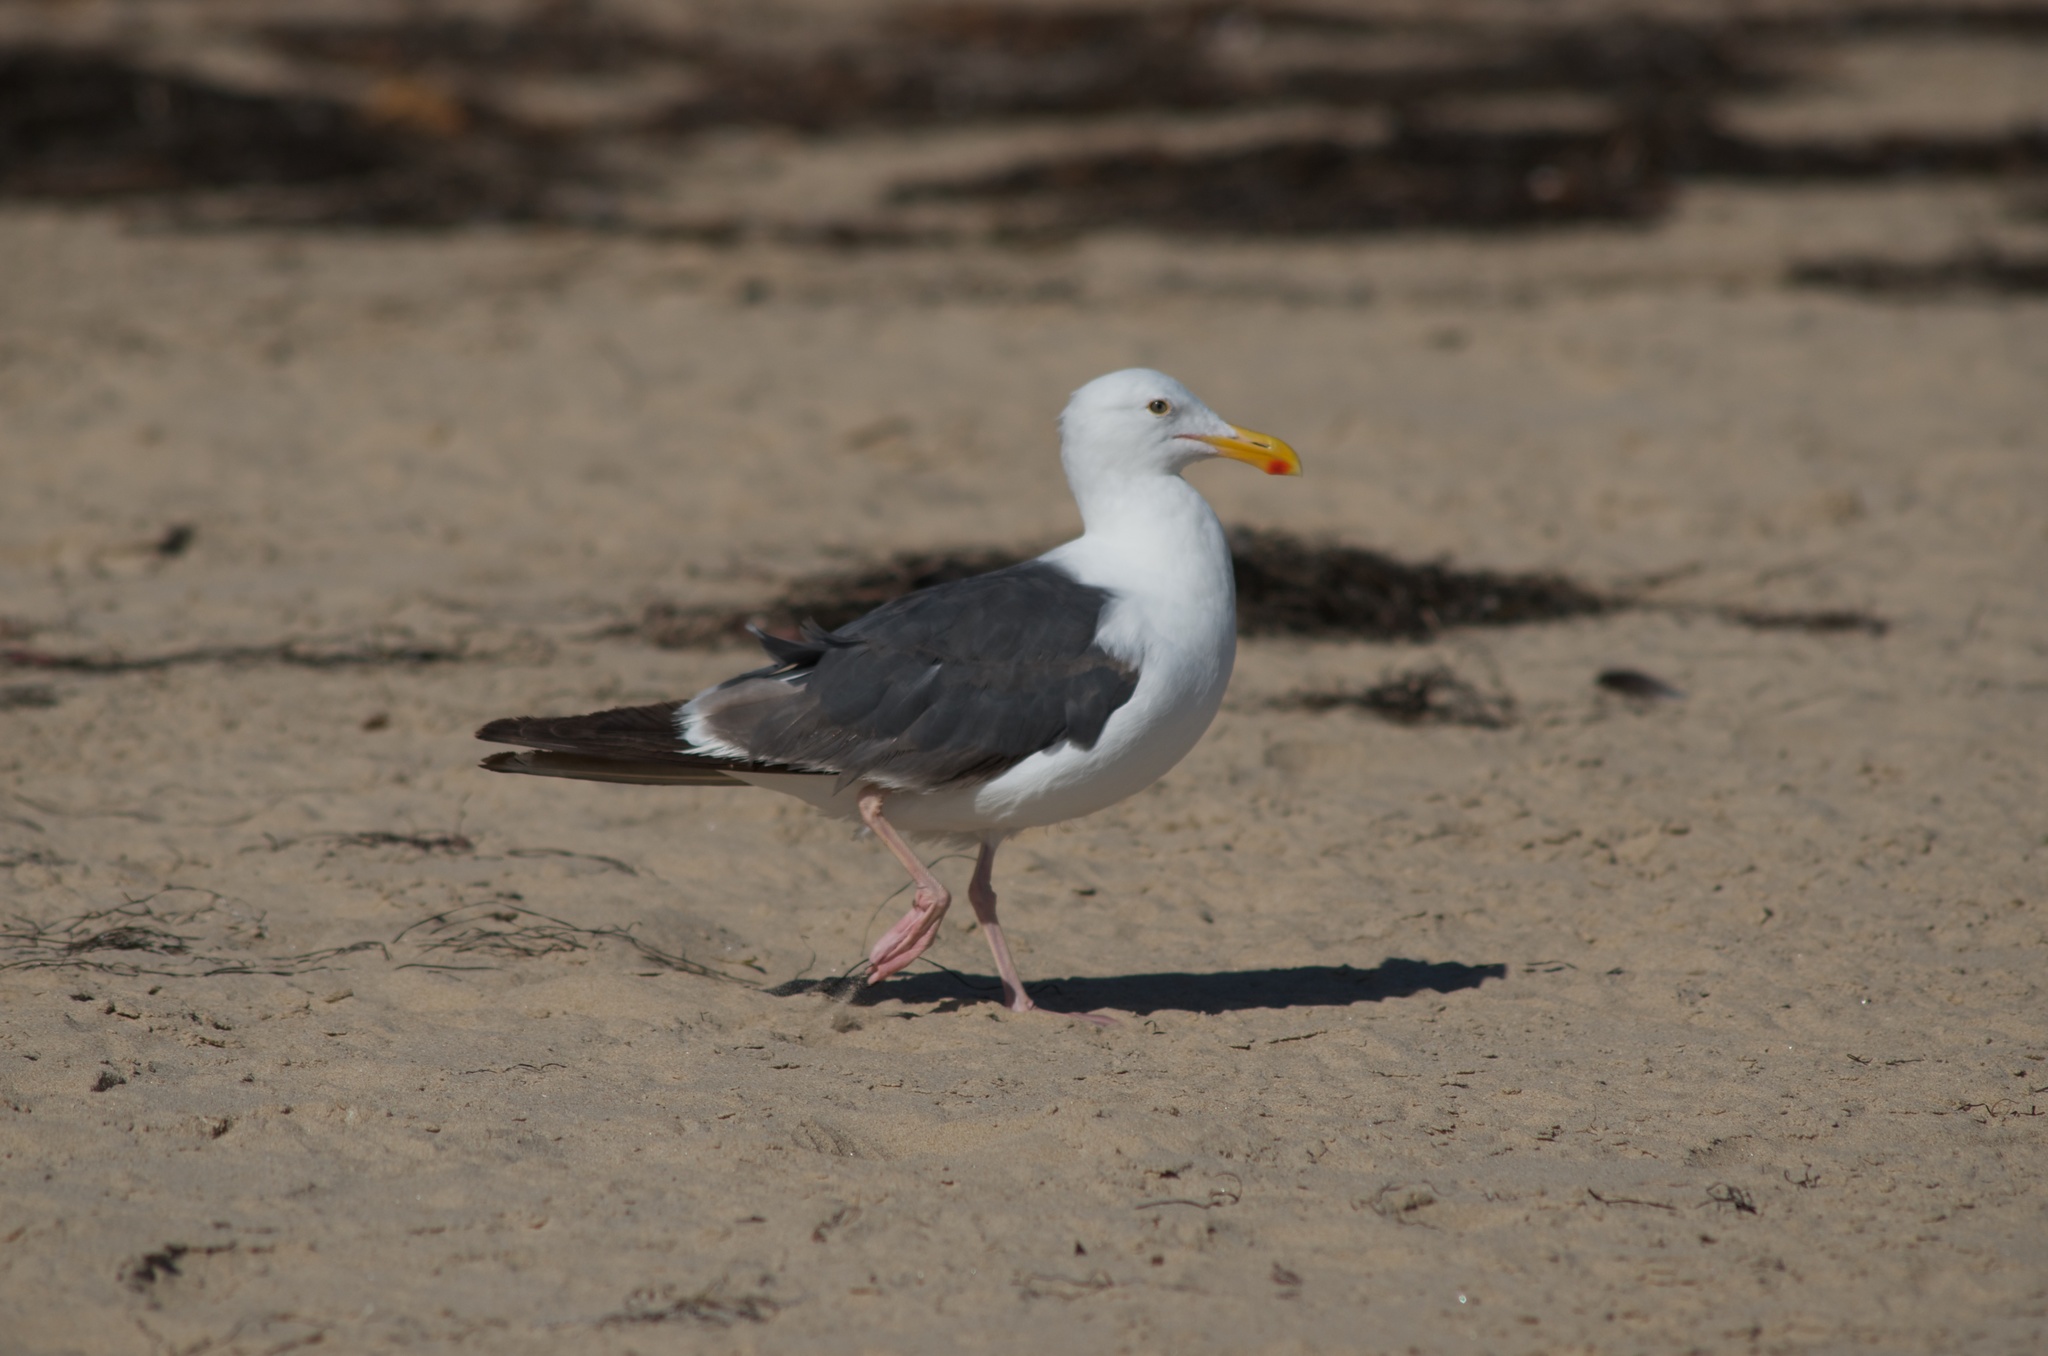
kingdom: Animalia
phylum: Chordata
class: Aves
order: Charadriiformes
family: Laridae
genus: Larus
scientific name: Larus occidentalis
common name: Western gull
